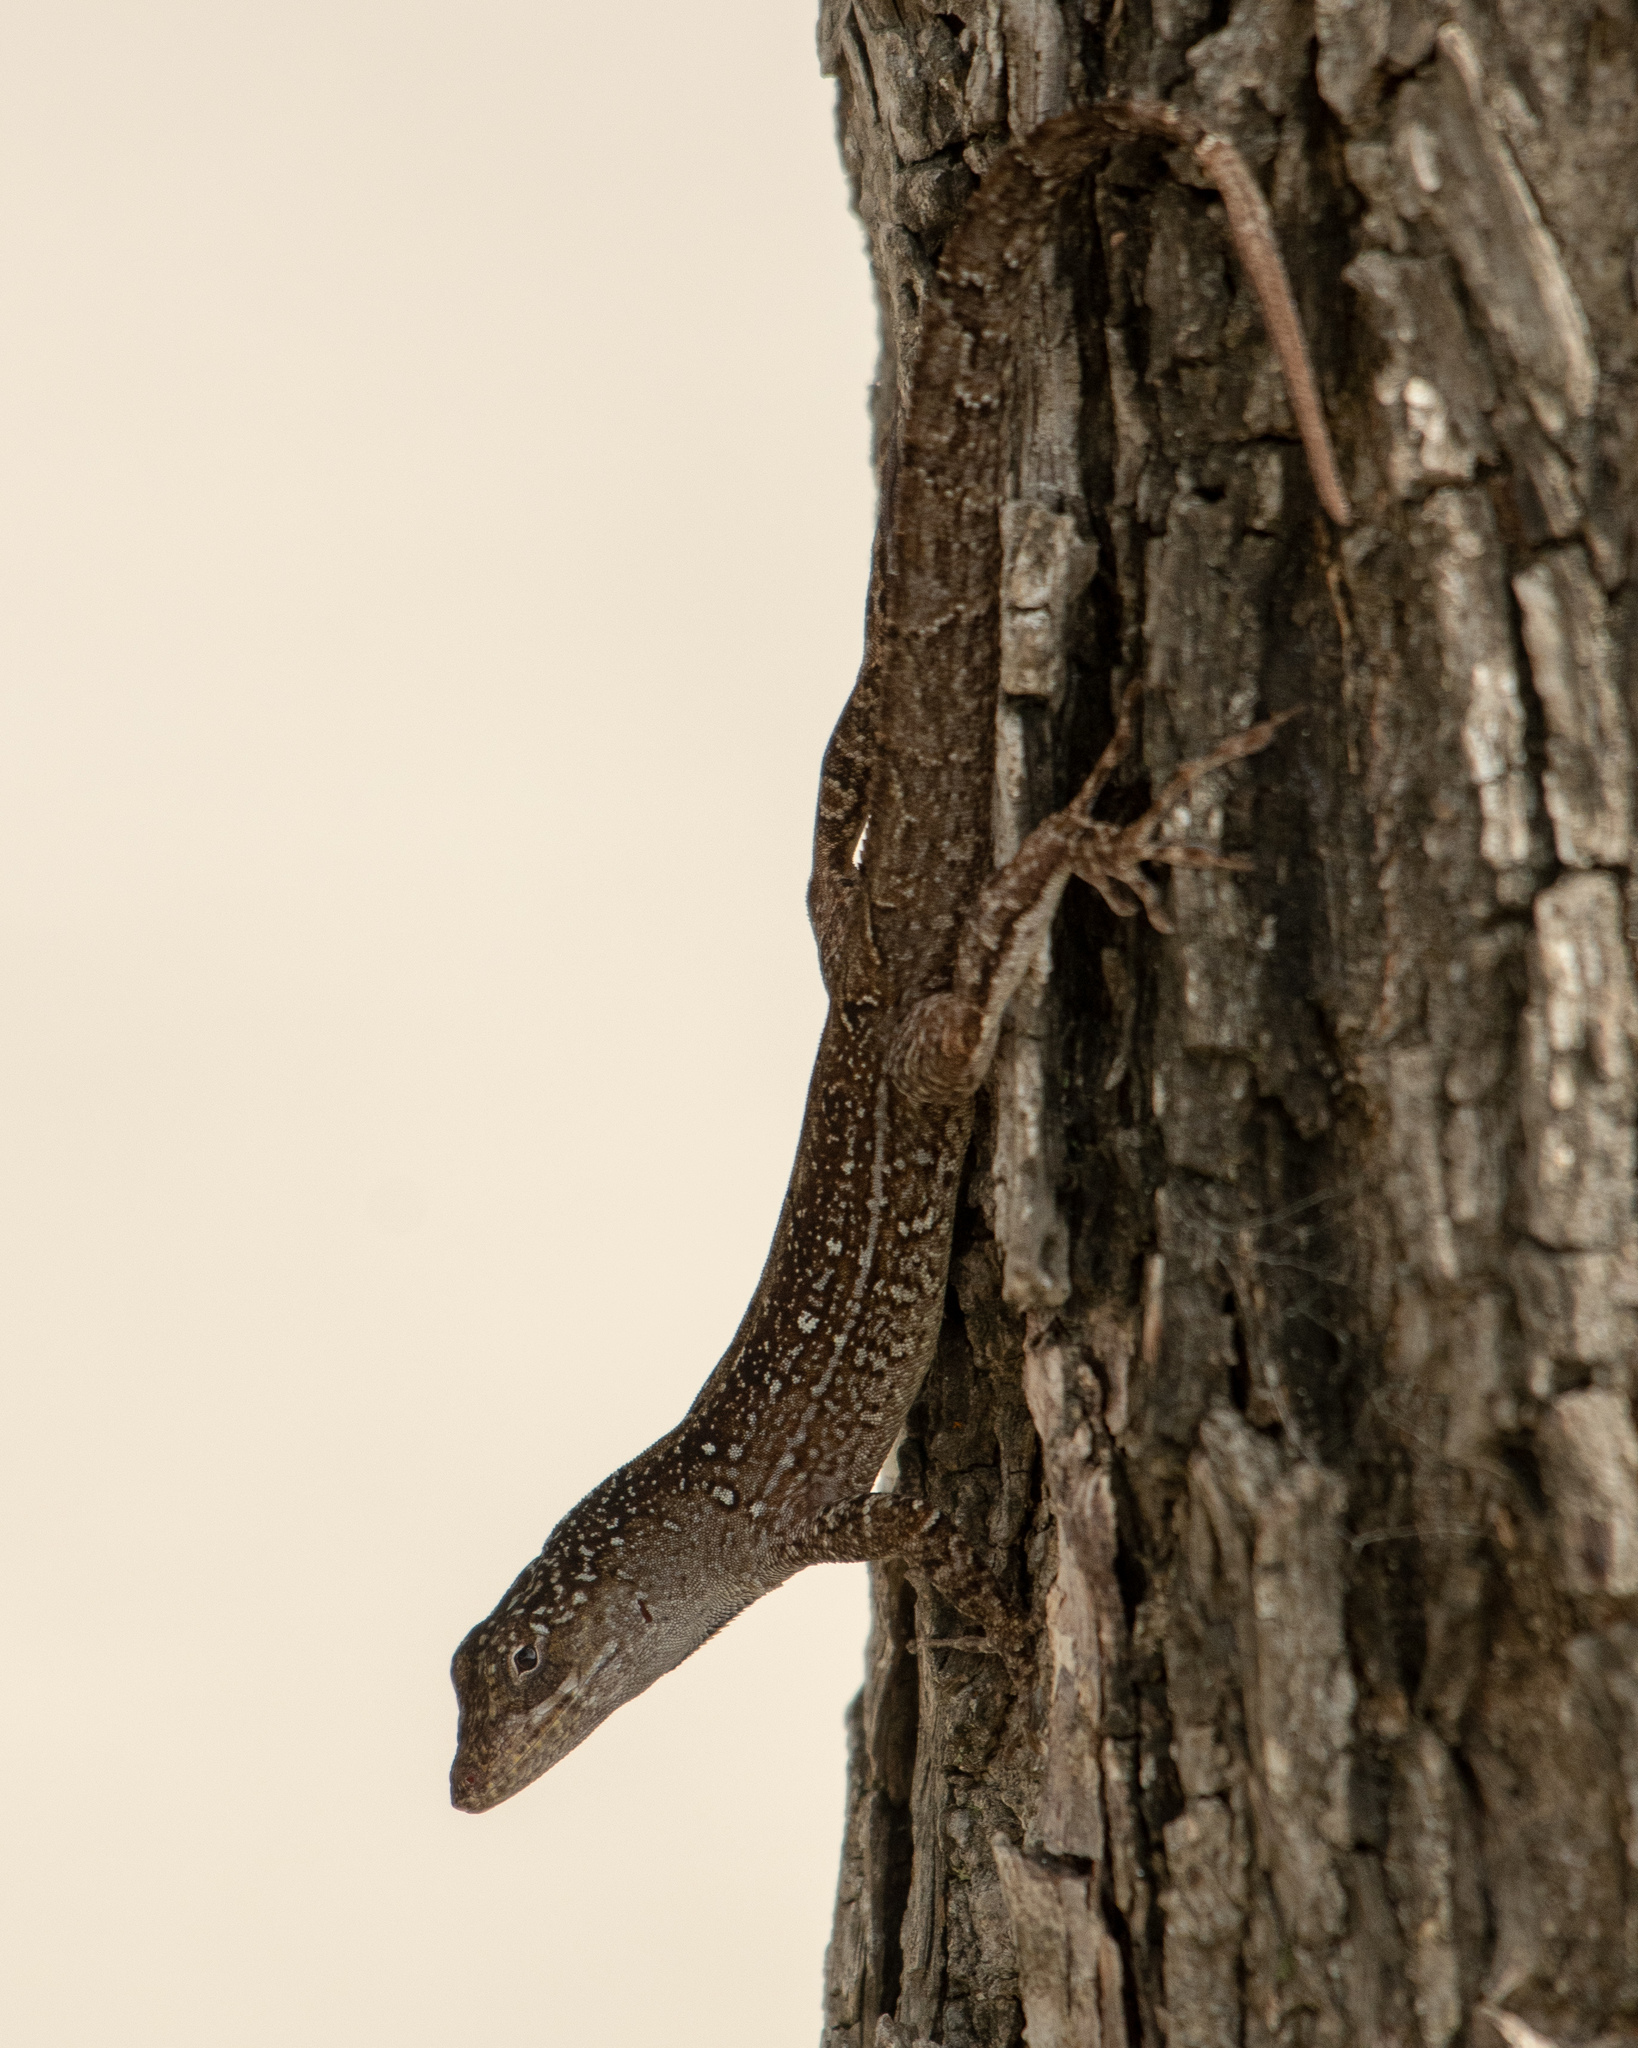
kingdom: Animalia
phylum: Chordata
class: Squamata
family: Dactyloidae
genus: Anolis
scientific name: Anolis sagrei
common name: Brown anole
